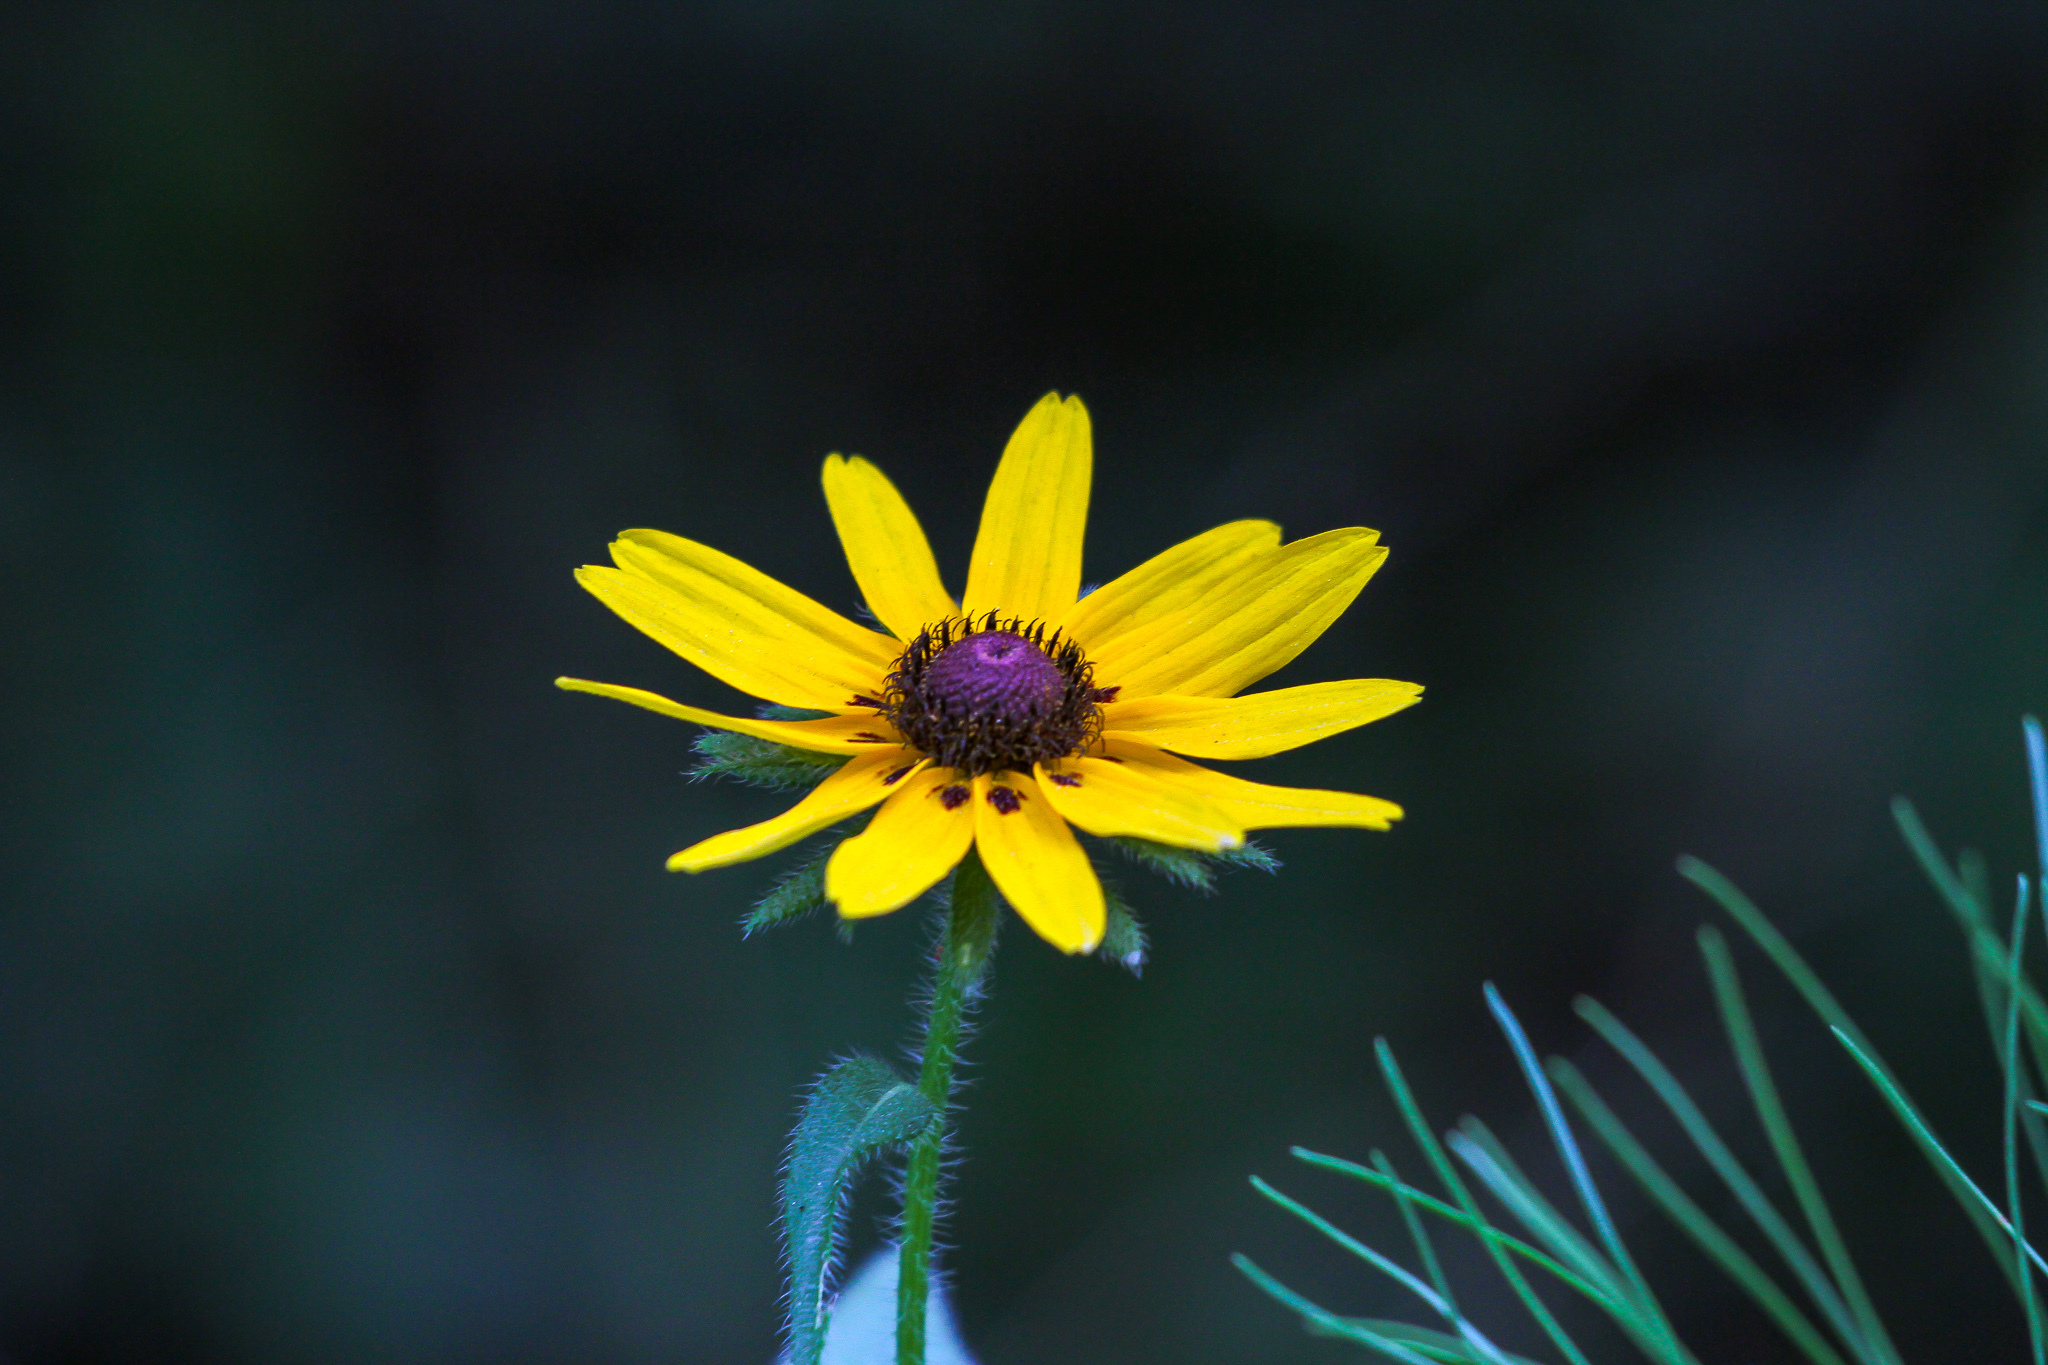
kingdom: Plantae
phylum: Tracheophyta
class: Magnoliopsida
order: Asterales
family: Asteraceae
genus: Rudbeckia
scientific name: Rudbeckia hirta
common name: Black-eyed-susan
